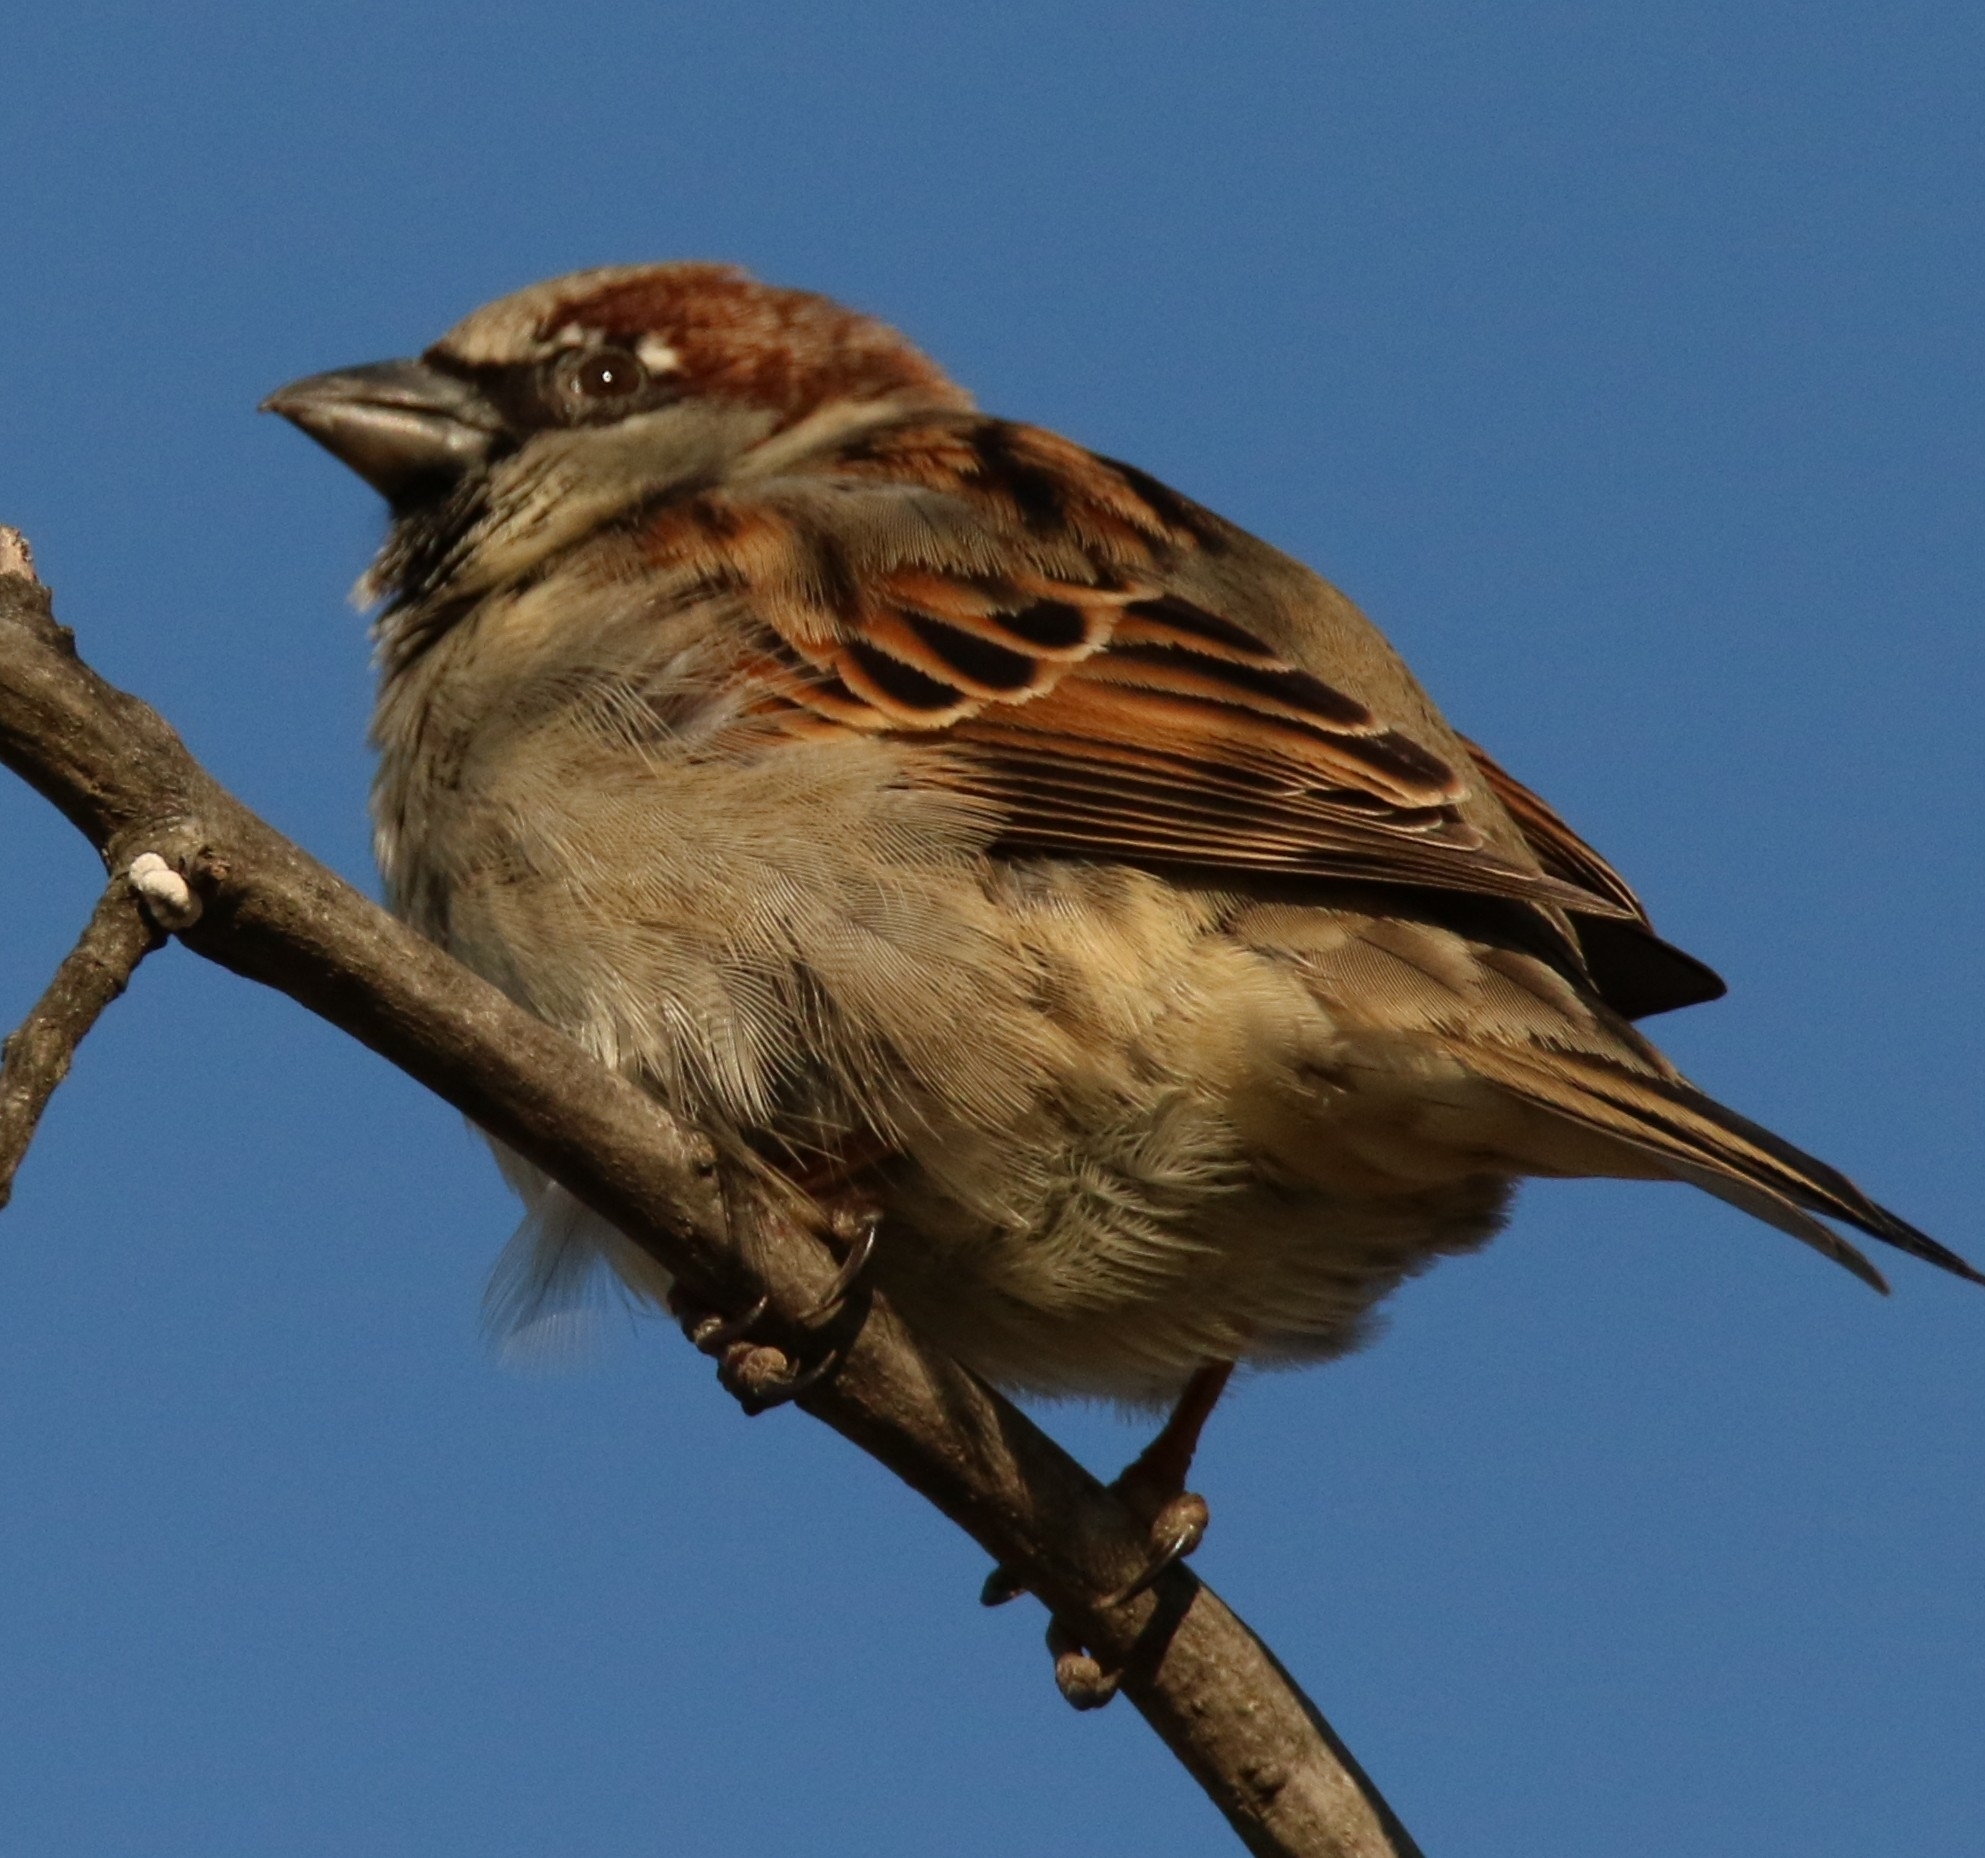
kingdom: Animalia
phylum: Chordata
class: Aves
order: Passeriformes
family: Passeridae
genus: Passer
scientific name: Passer domesticus
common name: House sparrow
